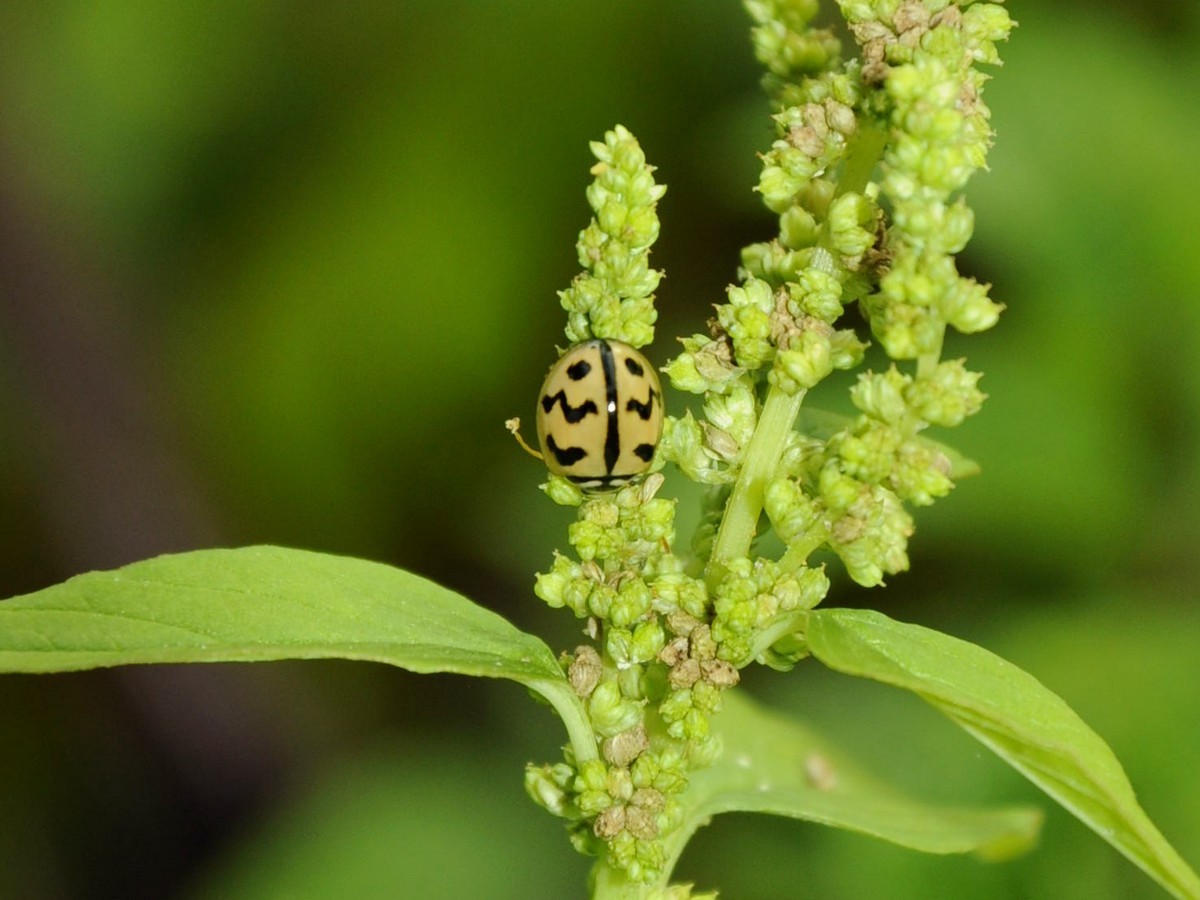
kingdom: Animalia
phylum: Arthropoda
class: Insecta
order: Coleoptera
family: Coccinellidae
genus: Cheilomenes
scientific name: Cheilomenes sexmaculata
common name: Ladybird beetle
